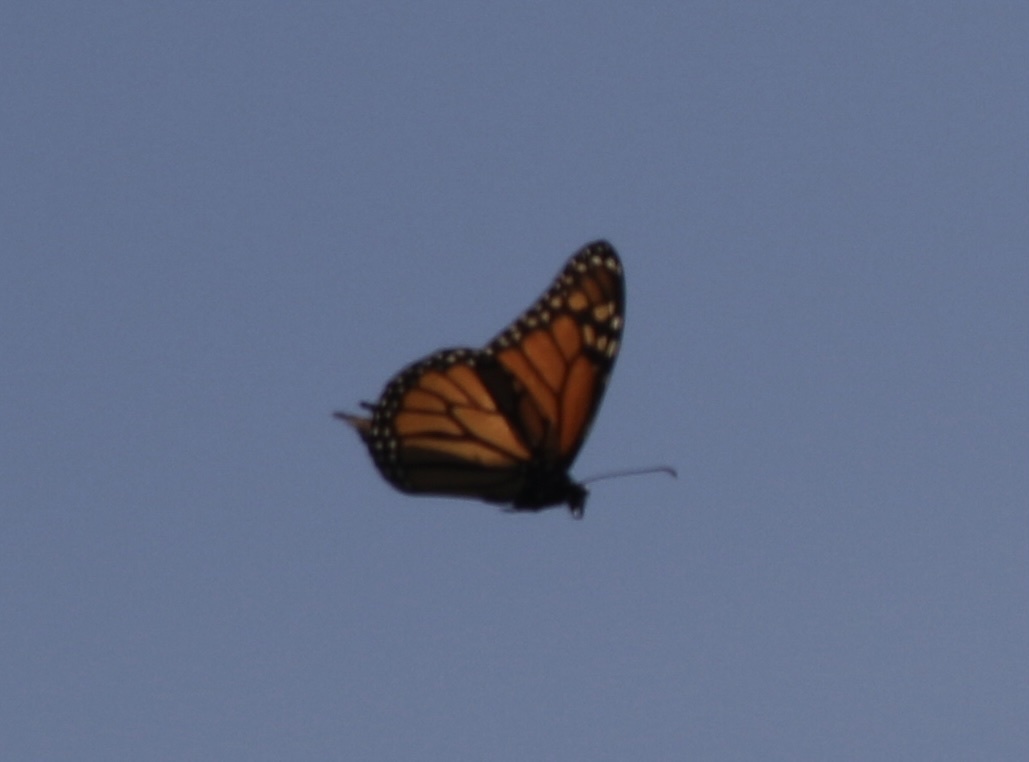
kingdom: Animalia
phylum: Arthropoda
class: Insecta
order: Lepidoptera
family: Nymphalidae
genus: Danaus
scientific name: Danaus plexippus
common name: Monarch
